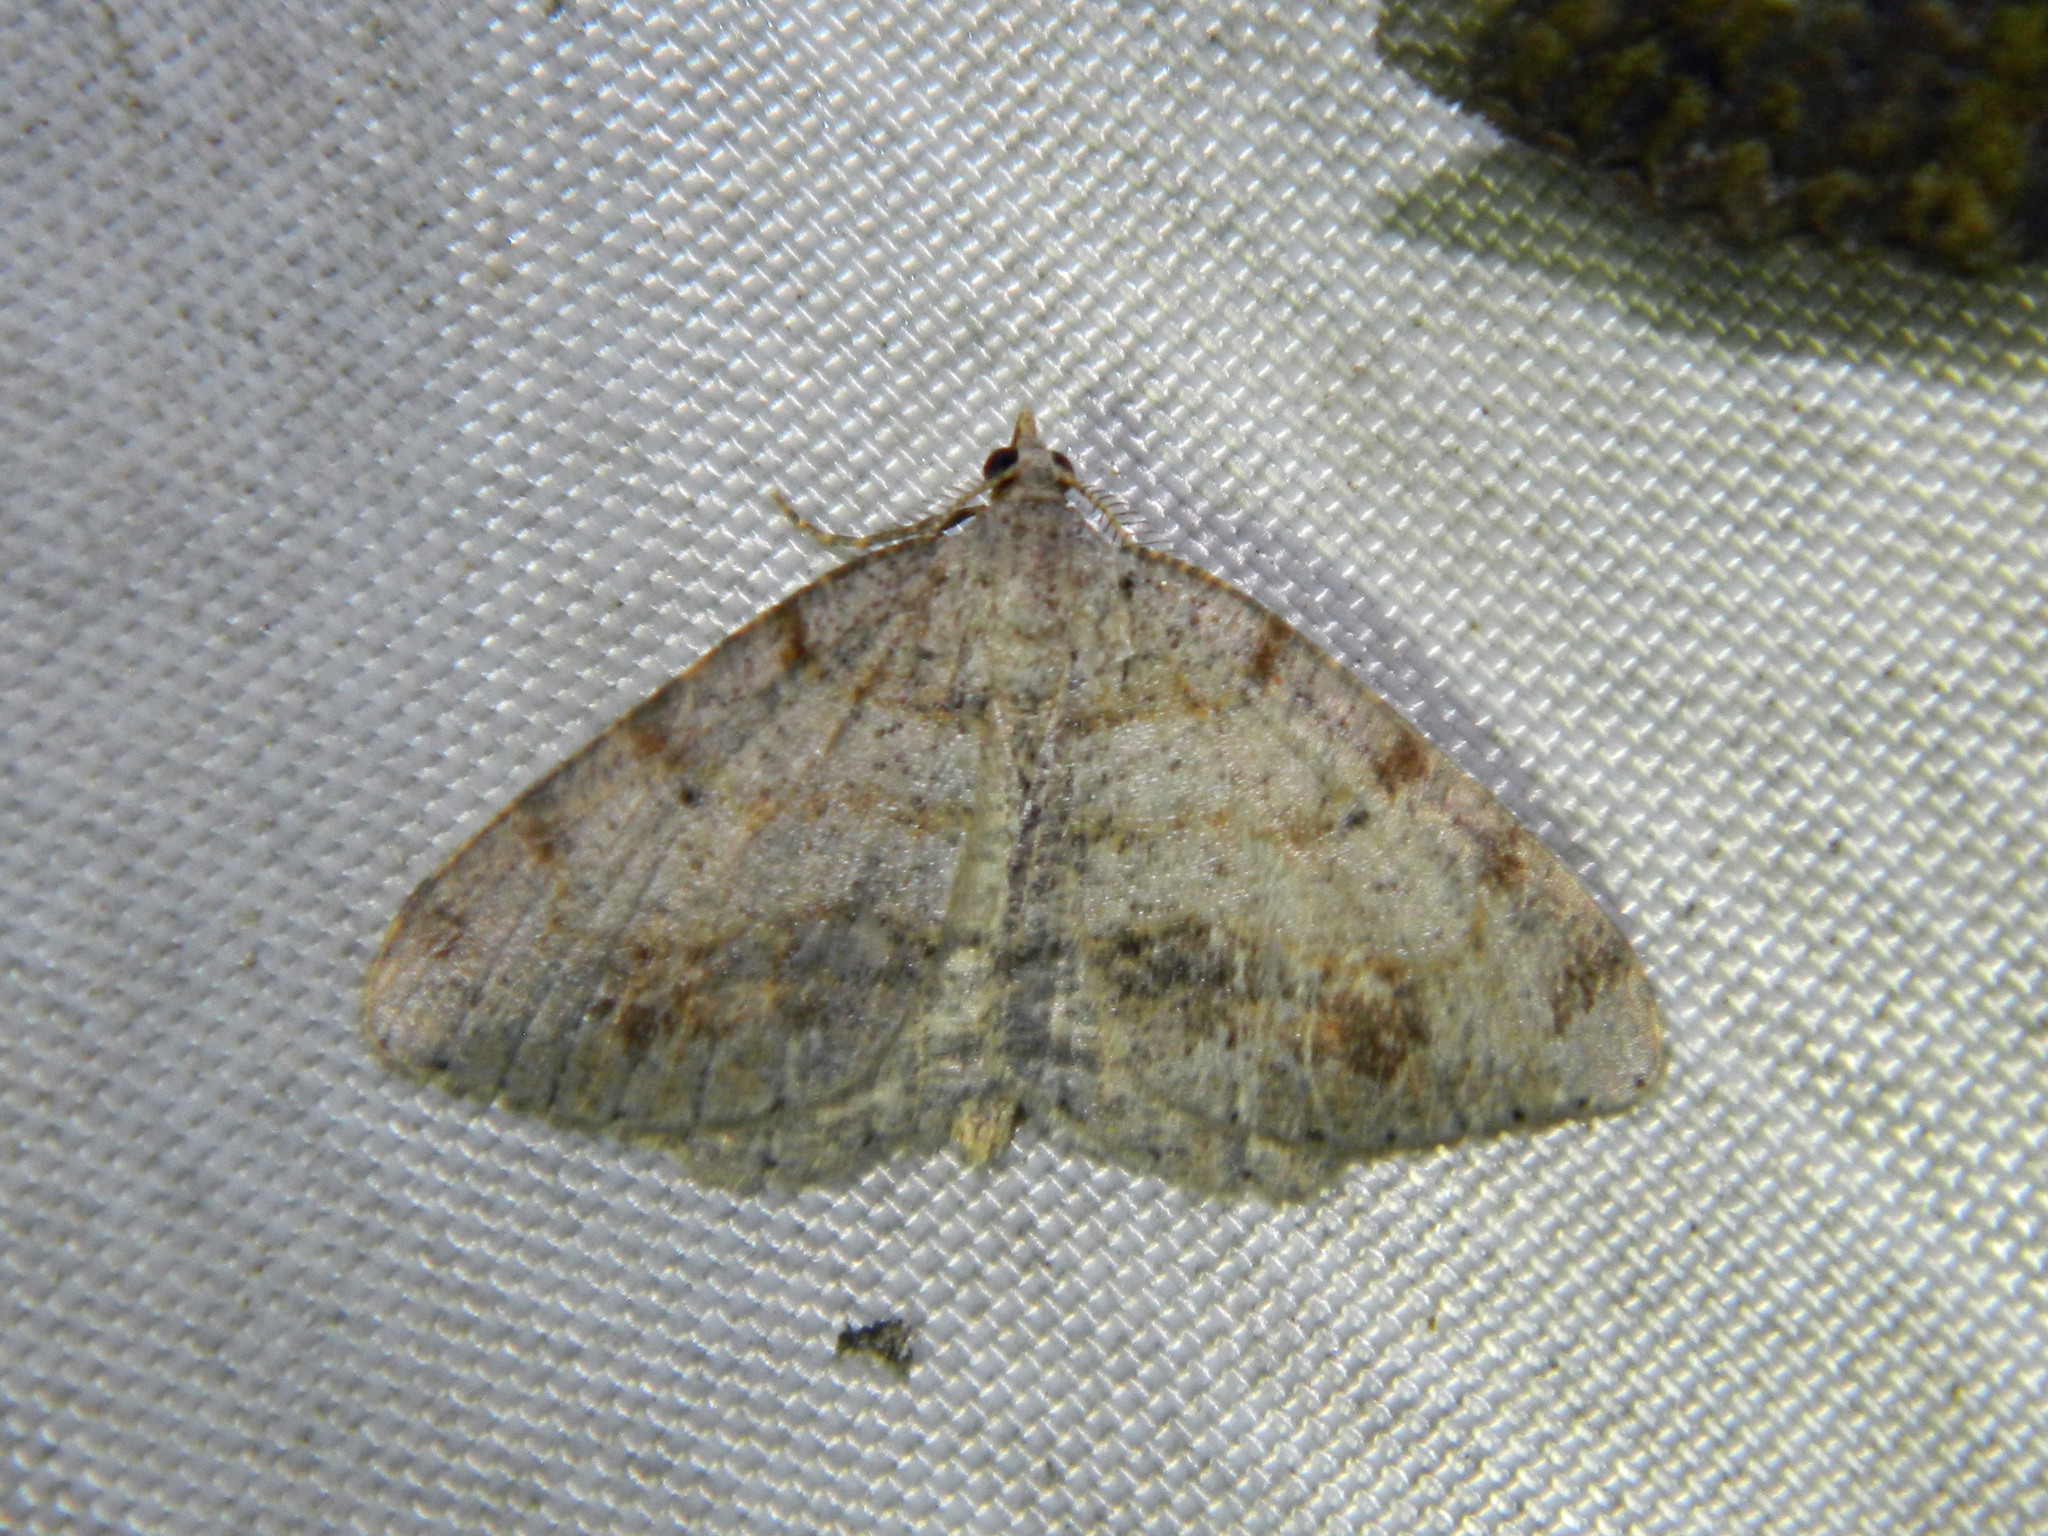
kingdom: Animalia
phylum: Arthropoda
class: Insecta
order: Lepidoptera
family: Geometridae
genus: Macaria
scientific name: Macaria exauspicata
